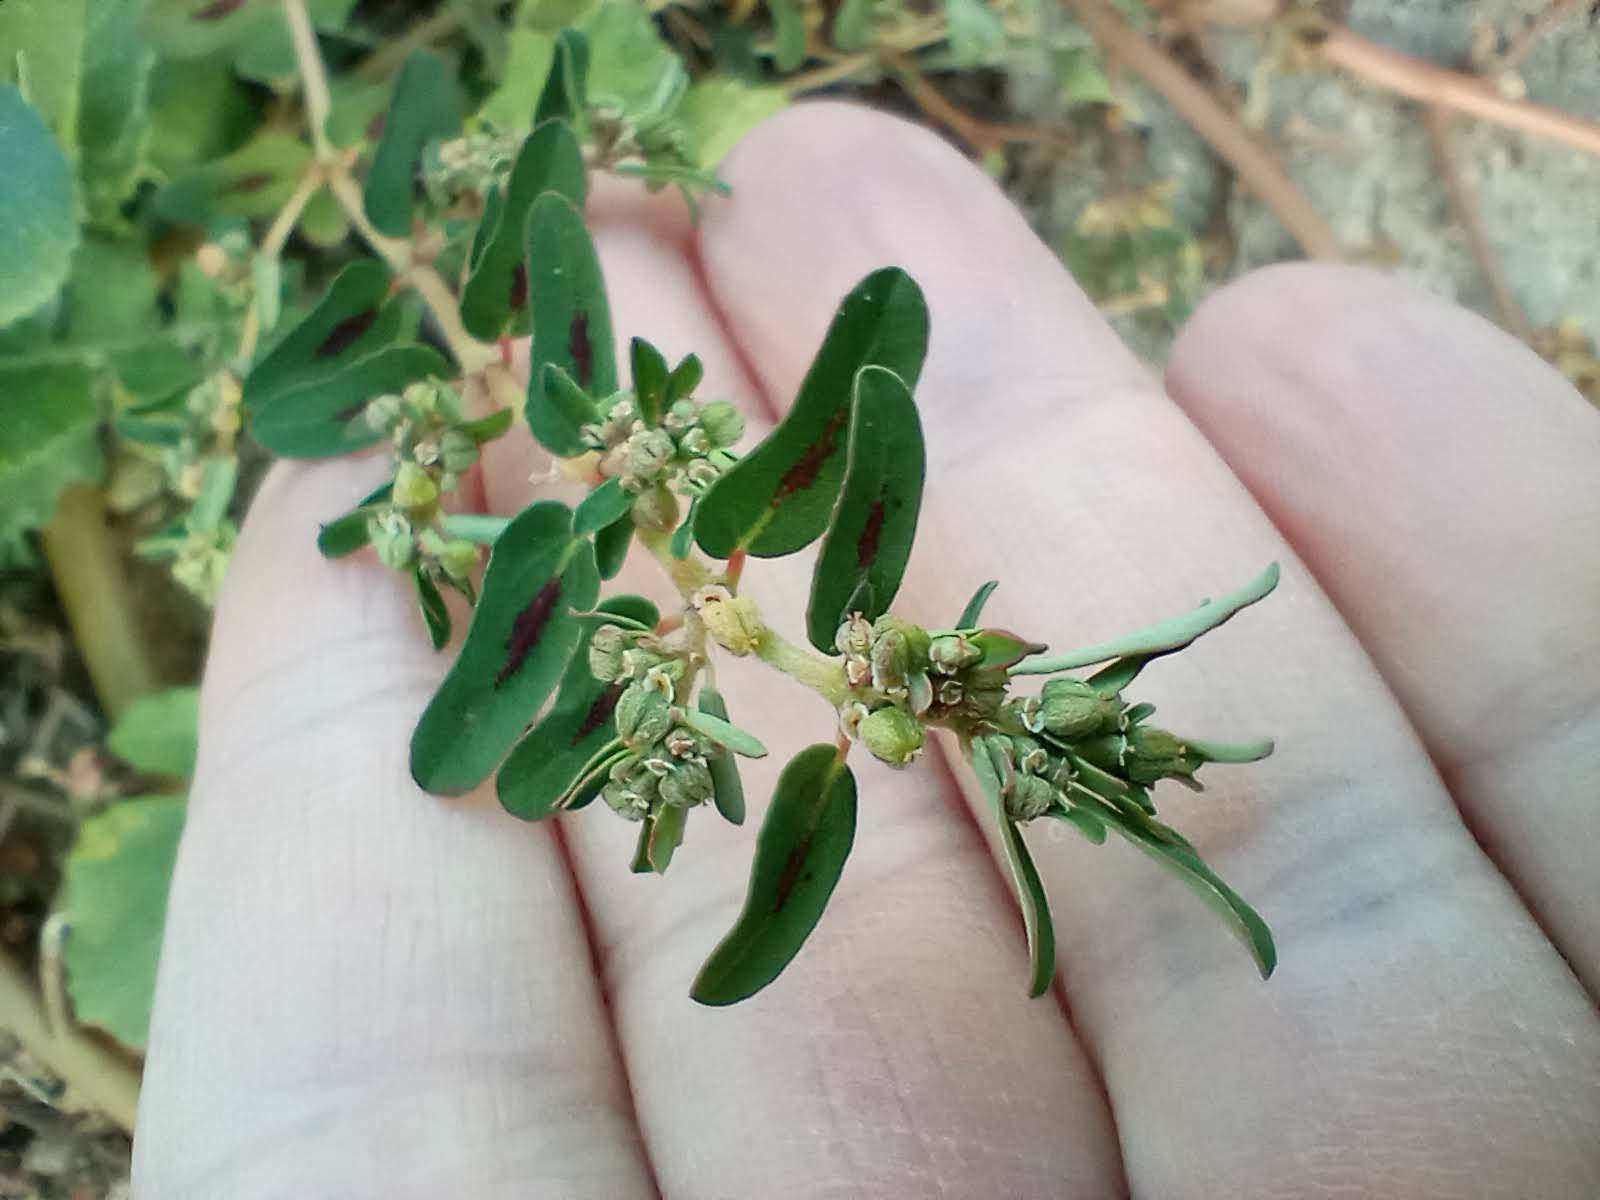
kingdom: Plantae
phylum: Tracheophyta
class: Magnoliopsida
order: Malpighiales
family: Euphorbiaceae
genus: Euphorbia
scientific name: Euphorbia maculata
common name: Spotted spurge
